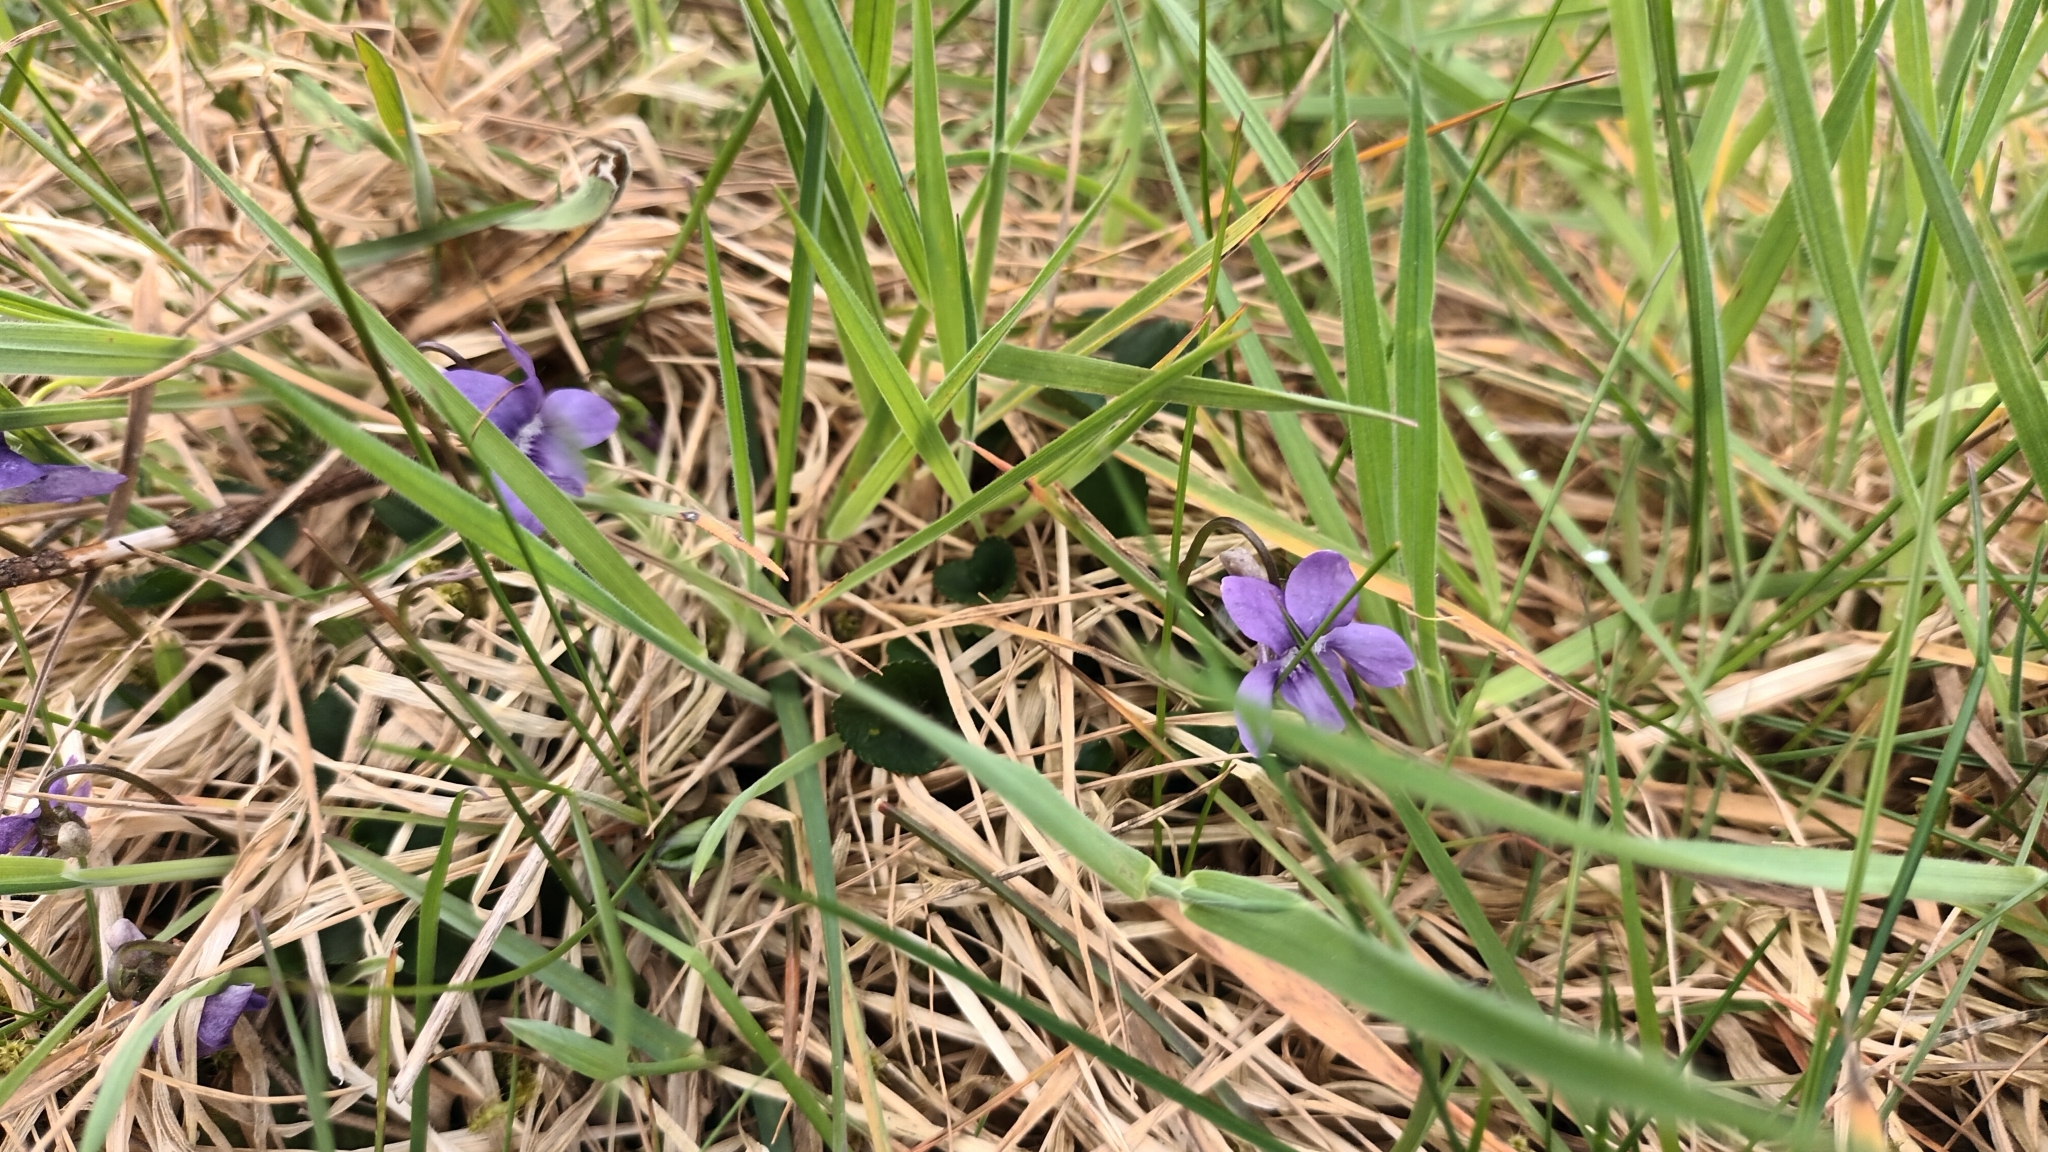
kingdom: Plantae
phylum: Tracheophyta
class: Magnoliopsida
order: Malpighiales
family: Violaceae
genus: Viola
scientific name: Viola riviniana
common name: Common dog-violet
